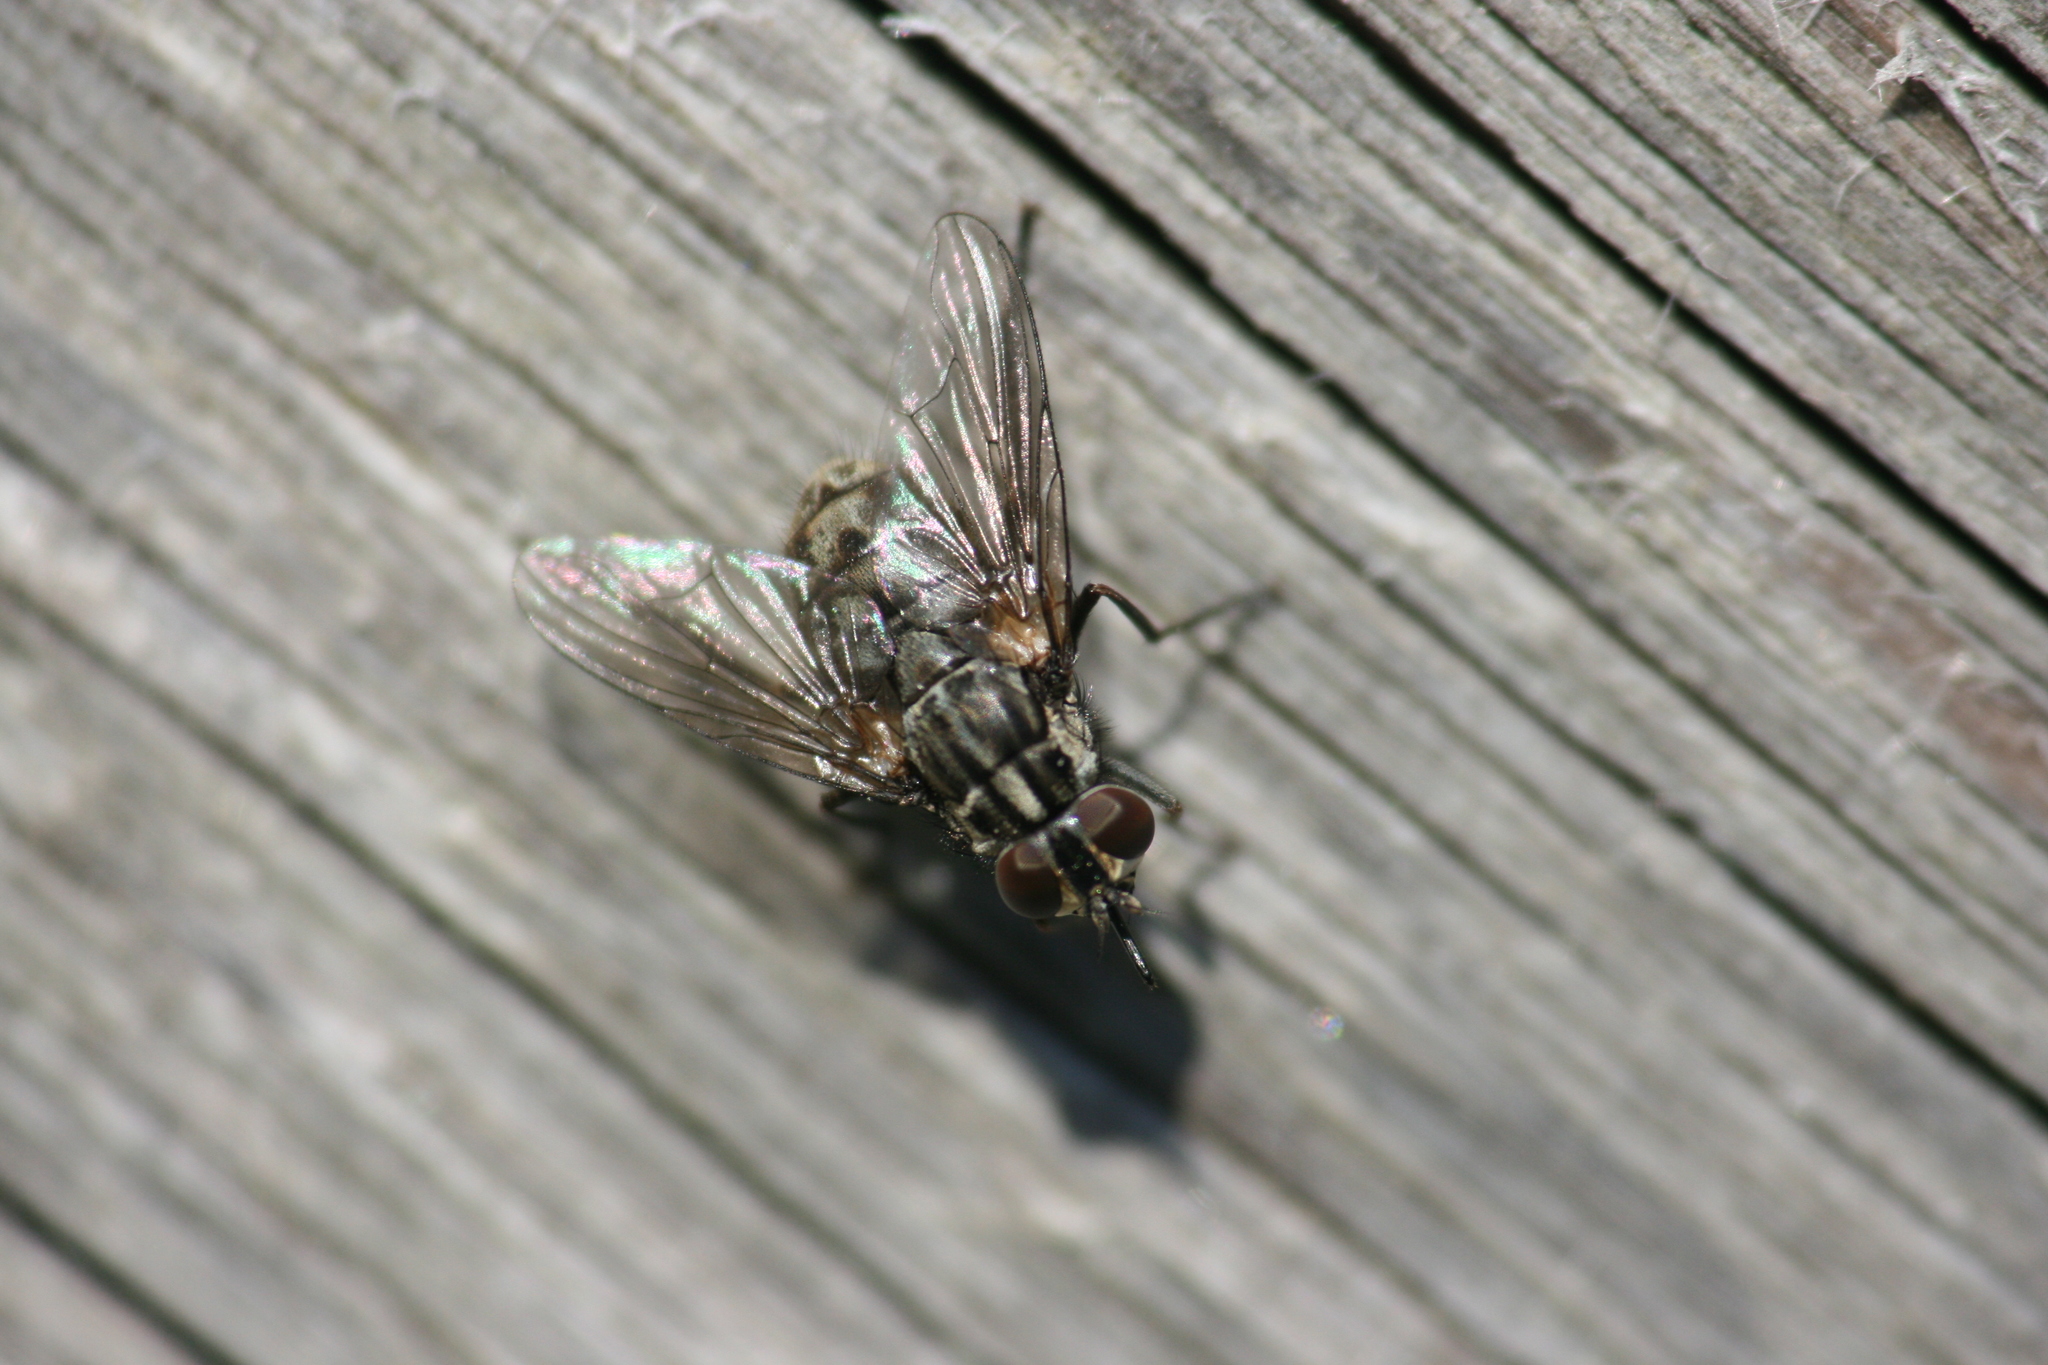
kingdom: Animalia
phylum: Arthropoda
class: Insecta
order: Diptera
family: Muscidae
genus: Stomoxys
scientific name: Stomoxys calcitrans
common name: Stable fly
